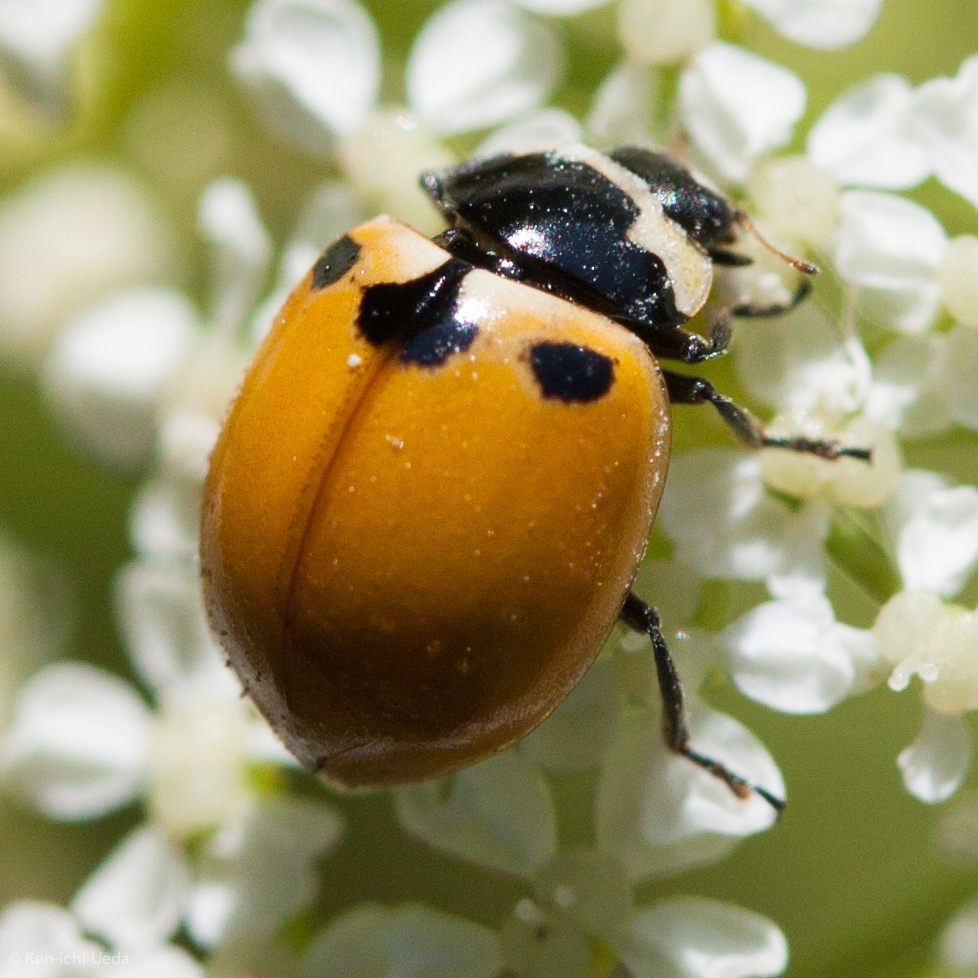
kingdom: Animalia
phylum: Arthropoda
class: Insecta
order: Coleoptera
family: Coccinellidae
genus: Coccinella
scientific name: Coccinella trifasciata
